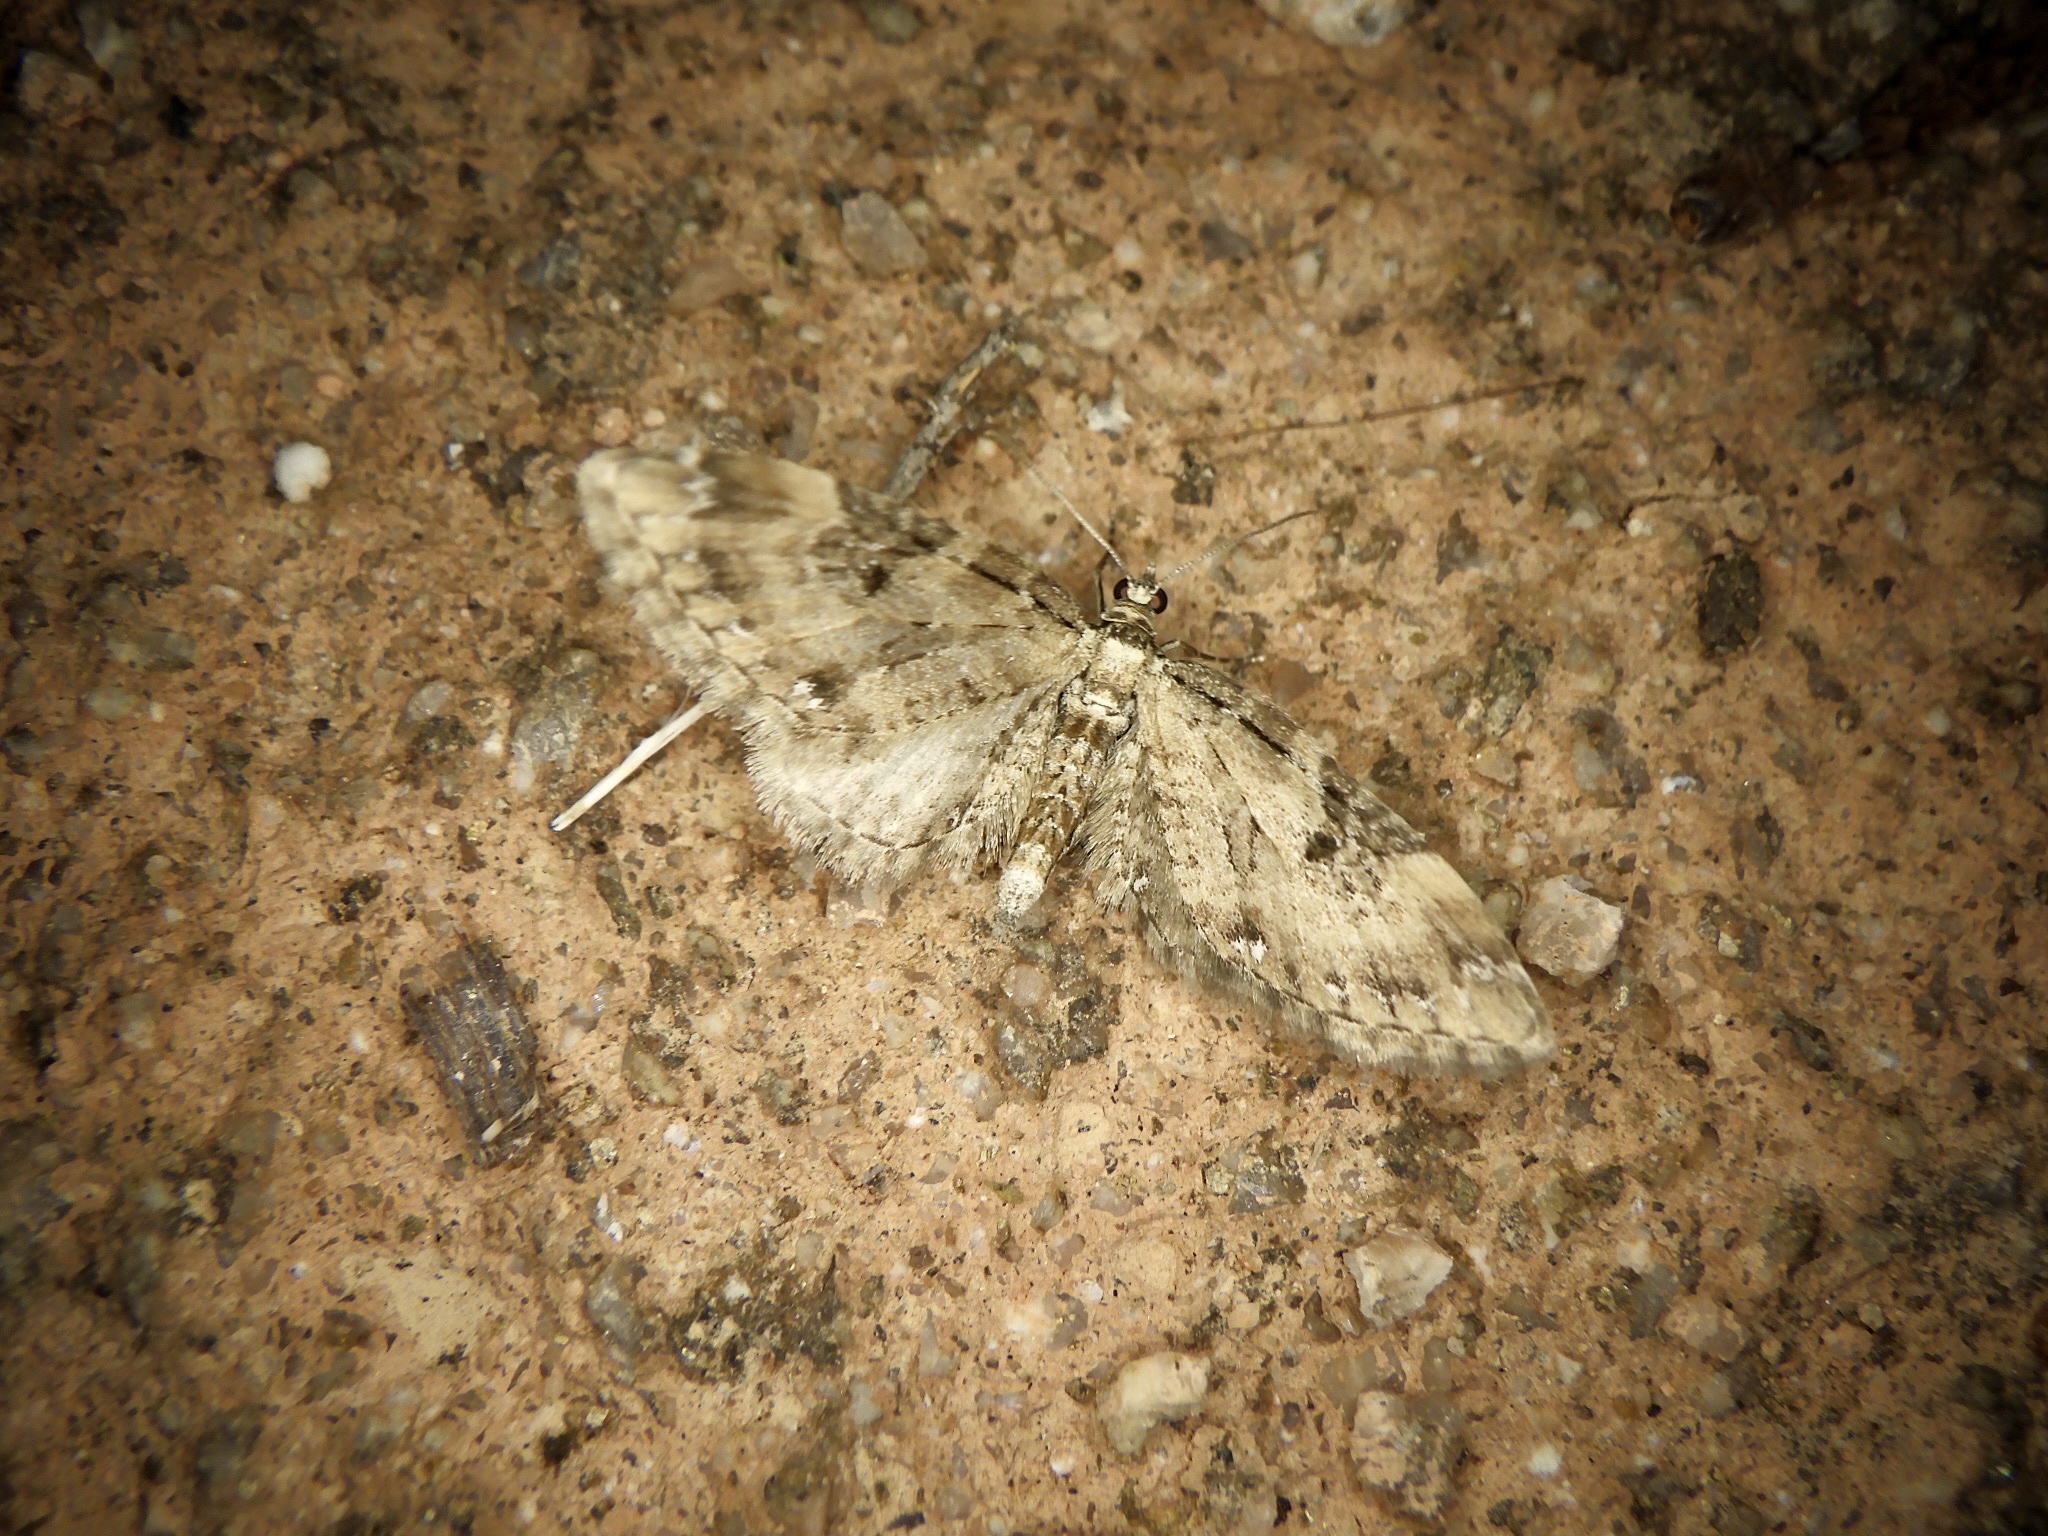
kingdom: Animalia
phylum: Arthropoda
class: Insecta
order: Lepidoptera
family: Geometridae
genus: Eupithecia
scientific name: Eupithecia proterva
